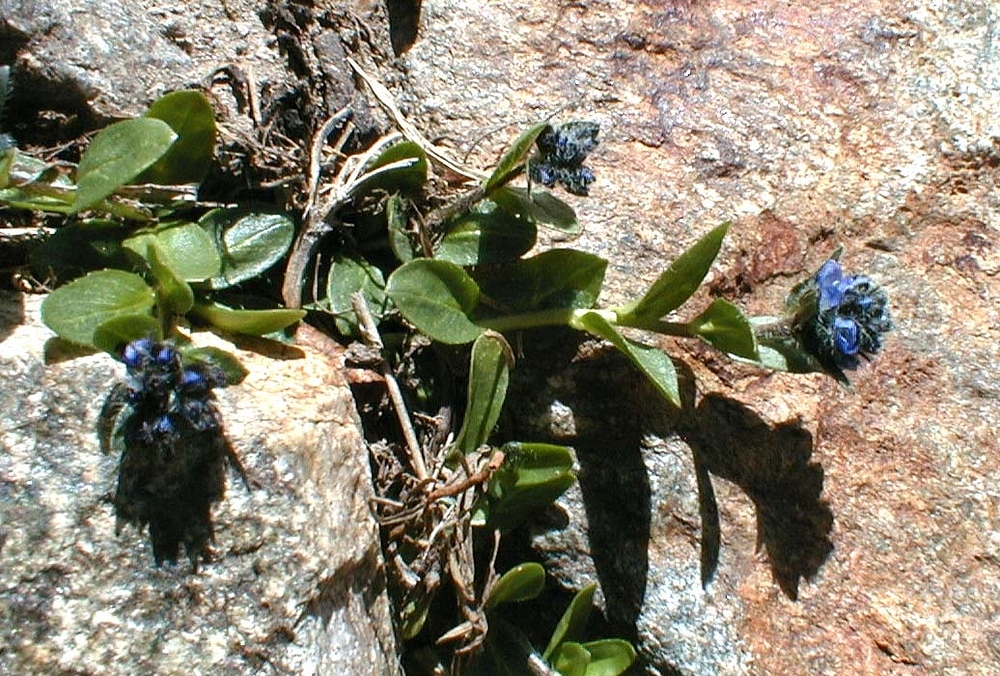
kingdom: Plantae
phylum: Tracheophyta
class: Magnoliopsida
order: Lamiales
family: Plantaginaceae
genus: Veronica
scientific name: Veronica alpina
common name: Alpine speedwell
